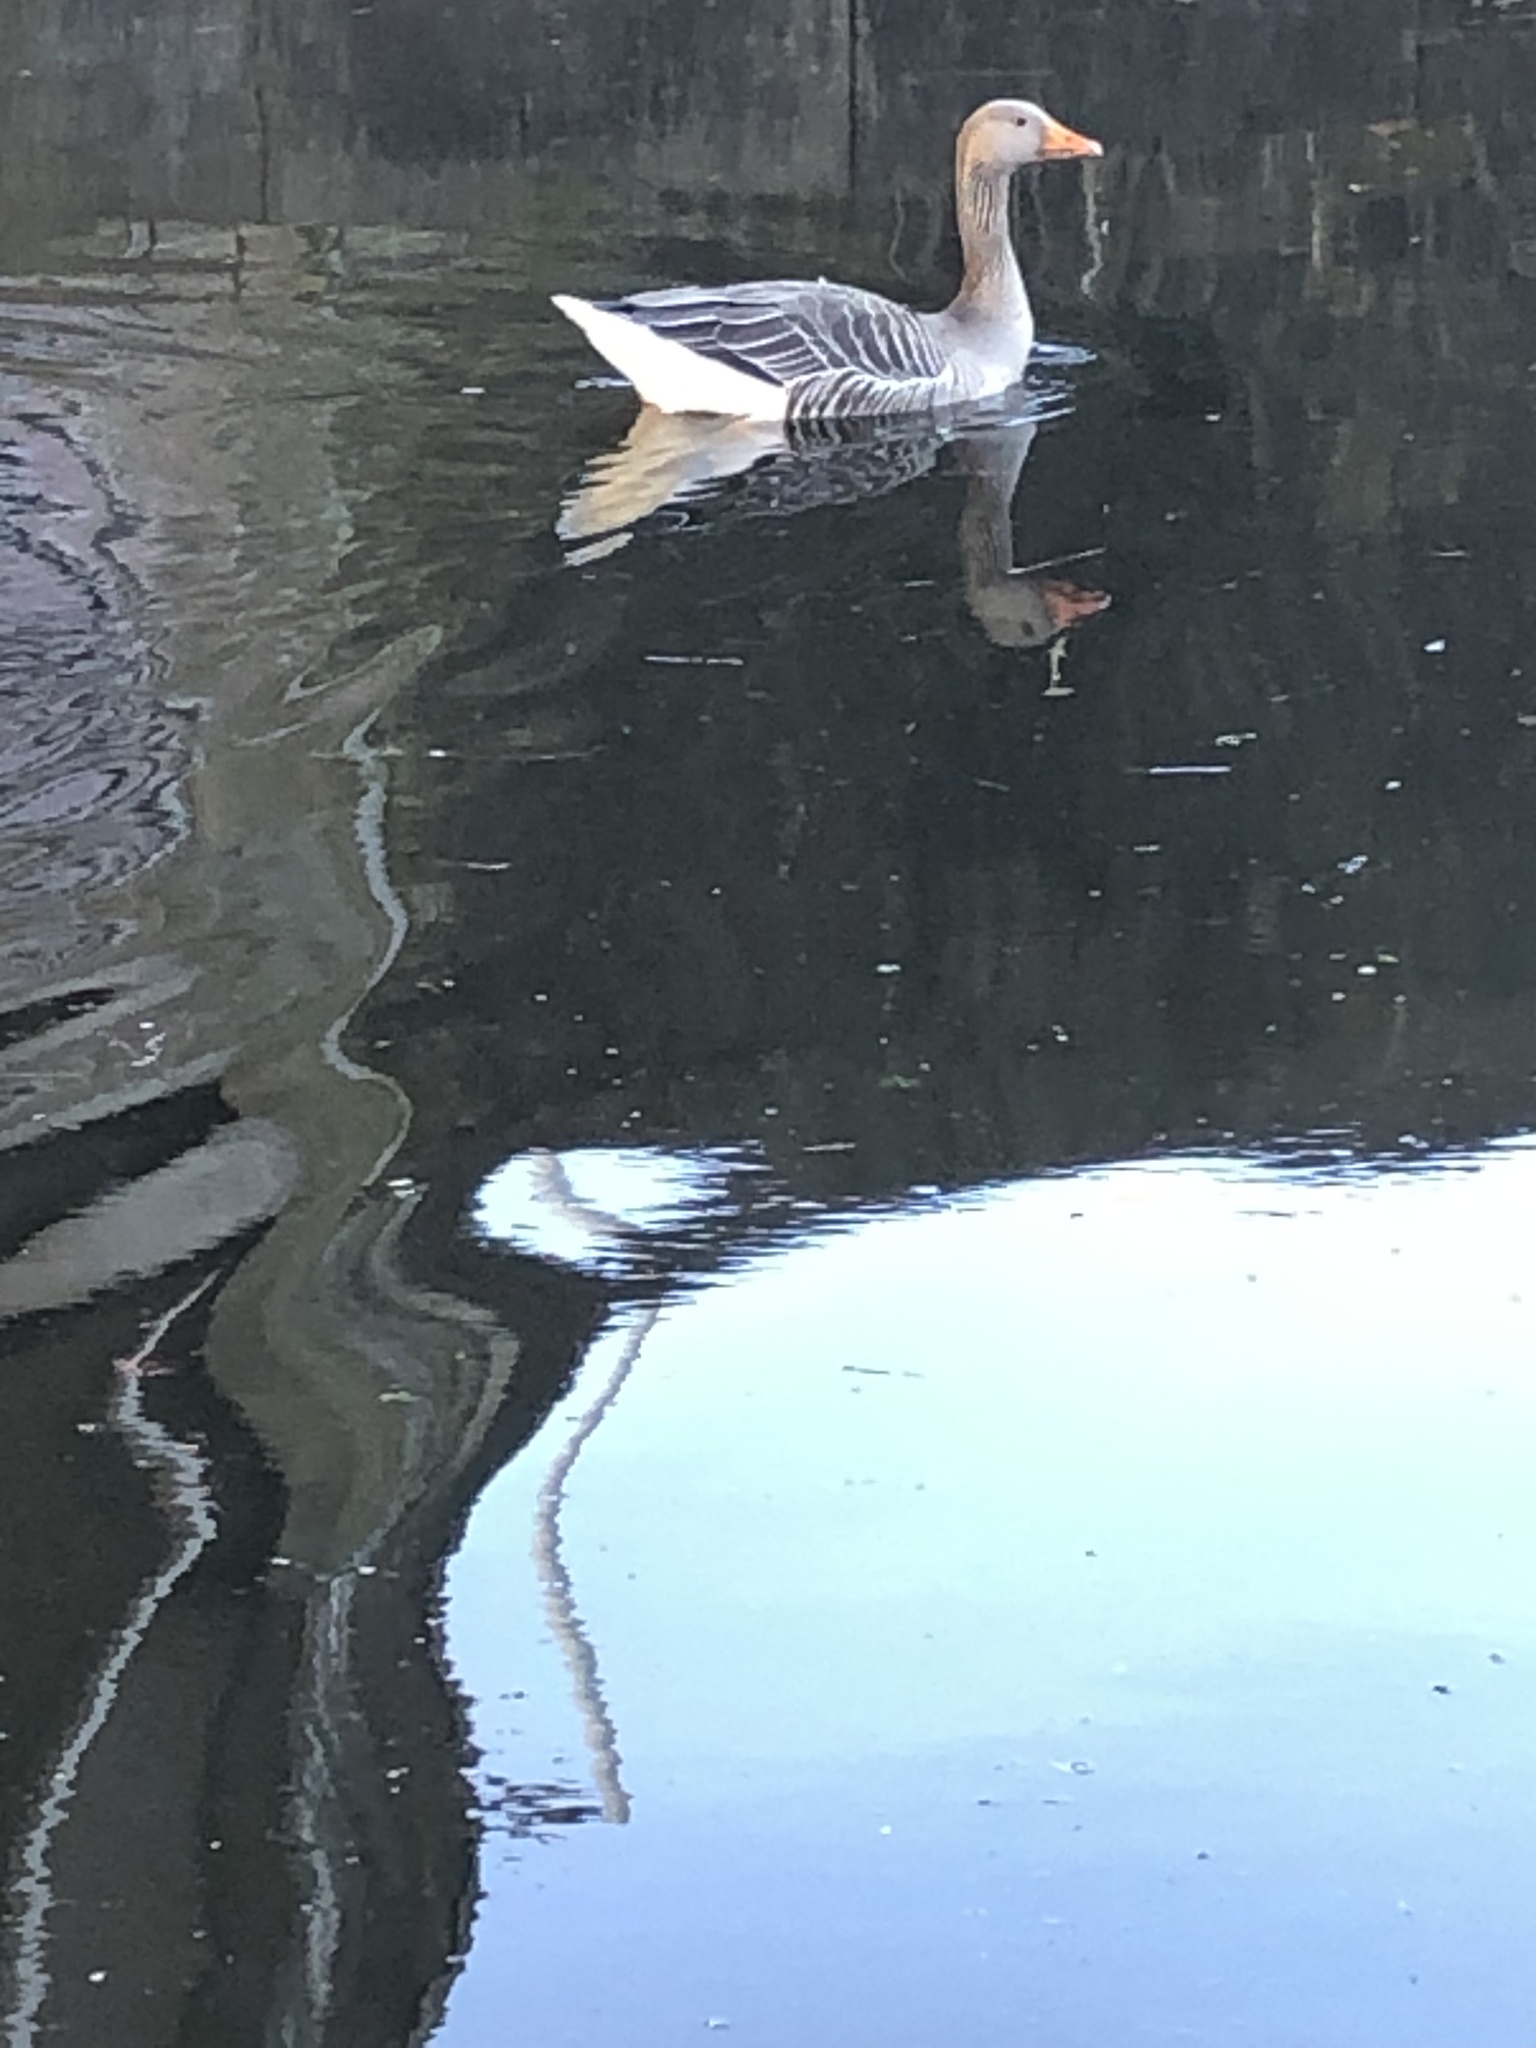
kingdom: Animalia
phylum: Chordata
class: Aves
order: Anseriformes
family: Anatidae
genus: Anser
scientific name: Anser anser
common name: Greylag goose
